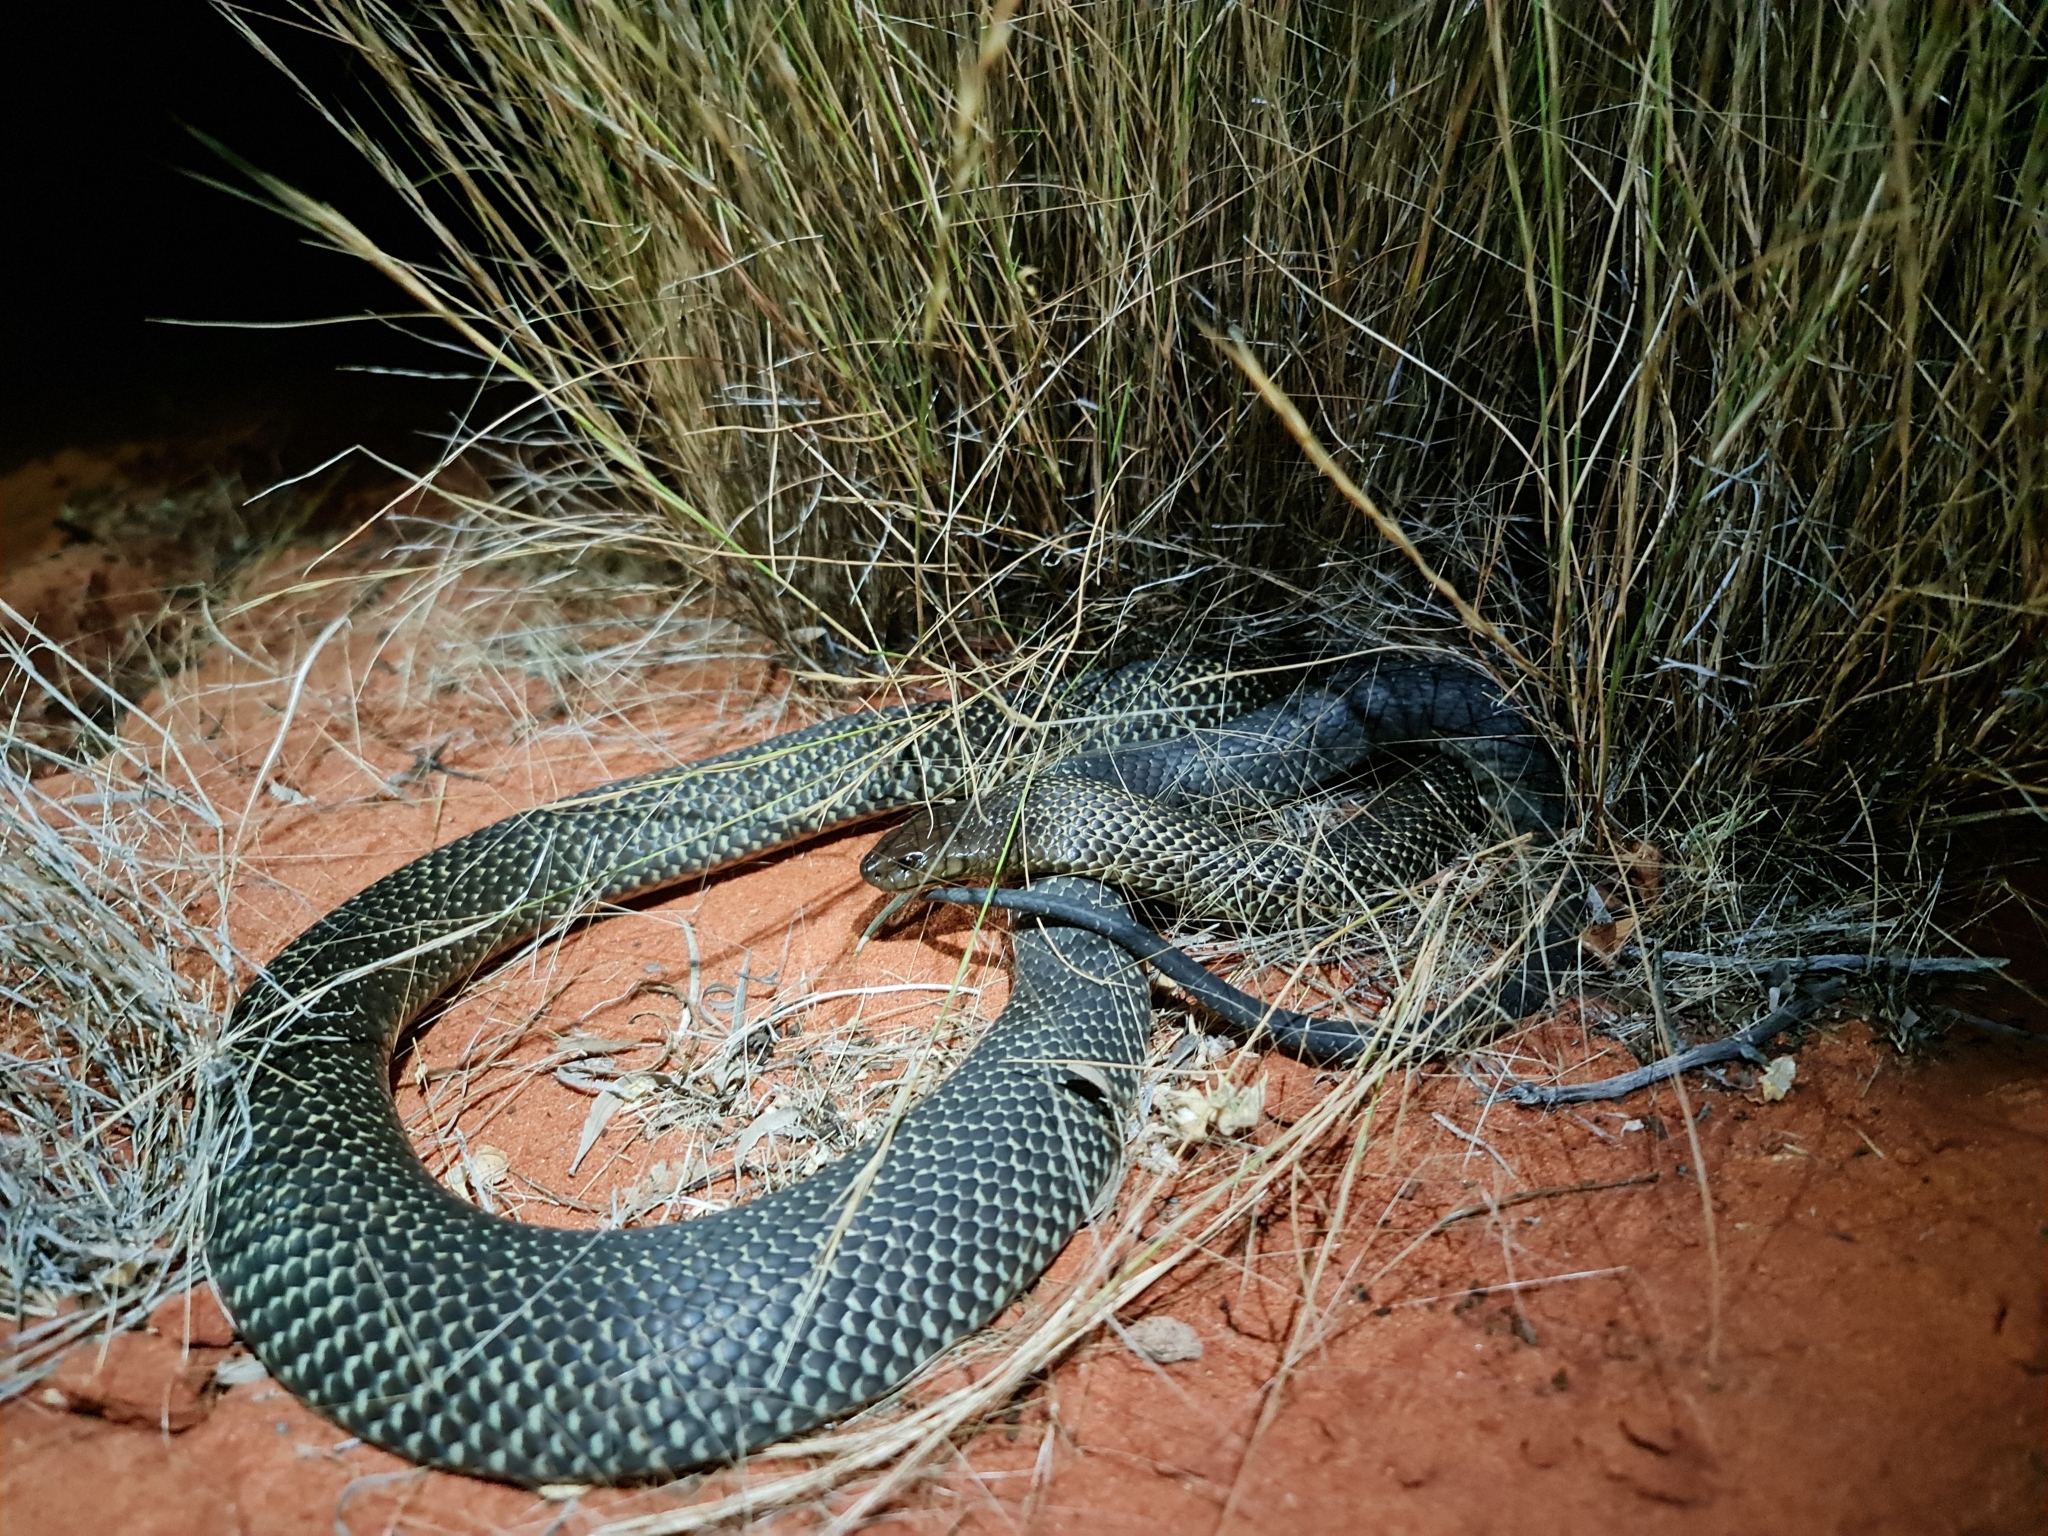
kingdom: Animalia
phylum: Chordata
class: Squamata
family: Elapidae
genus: Pseudechis
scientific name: Pseudechis australis
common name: King brown snake
